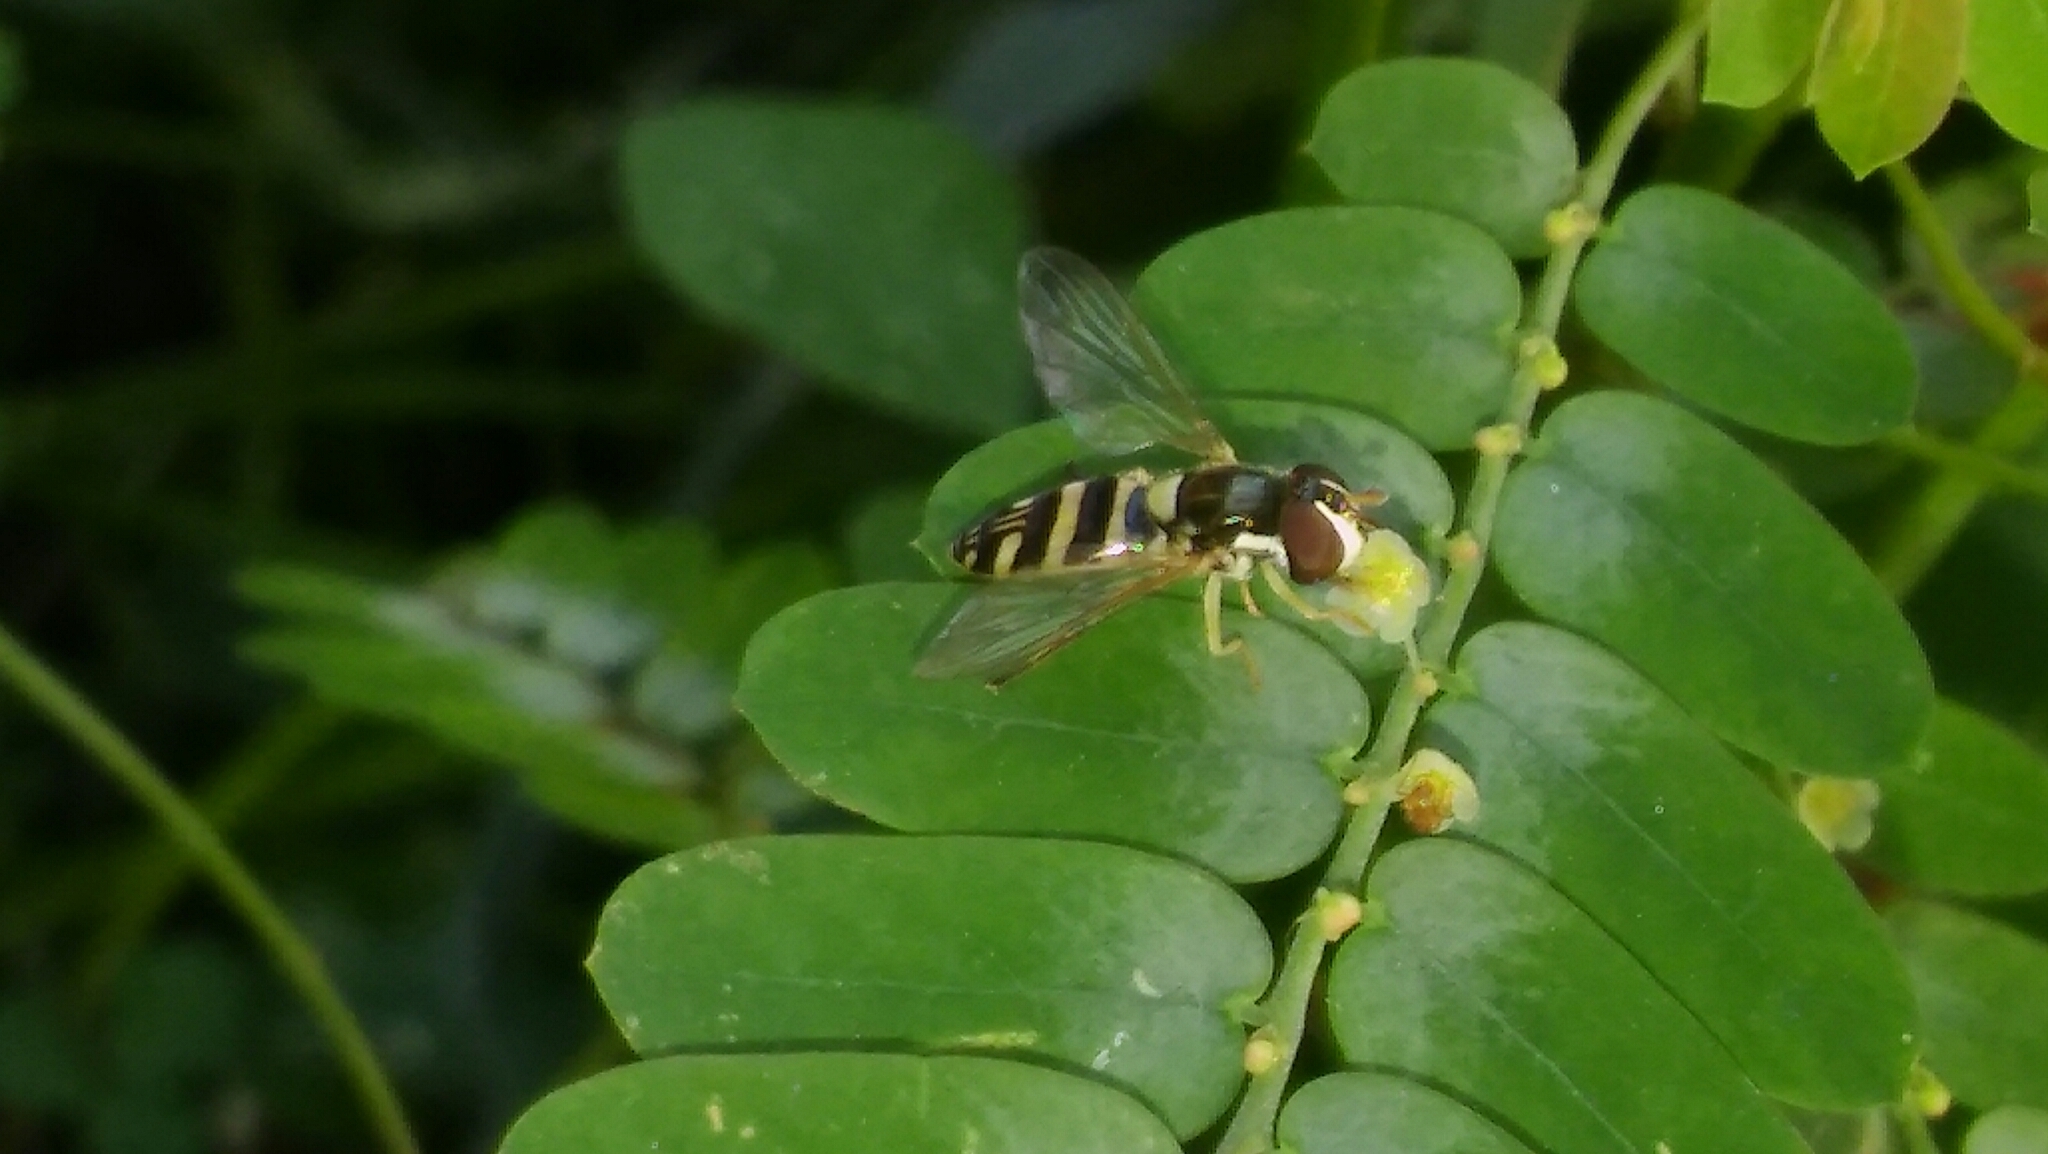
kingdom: Animalia
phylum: Arthropoda
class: Insecta
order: Diptera
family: Syrphidae
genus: Allograpta
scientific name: Allograpta
